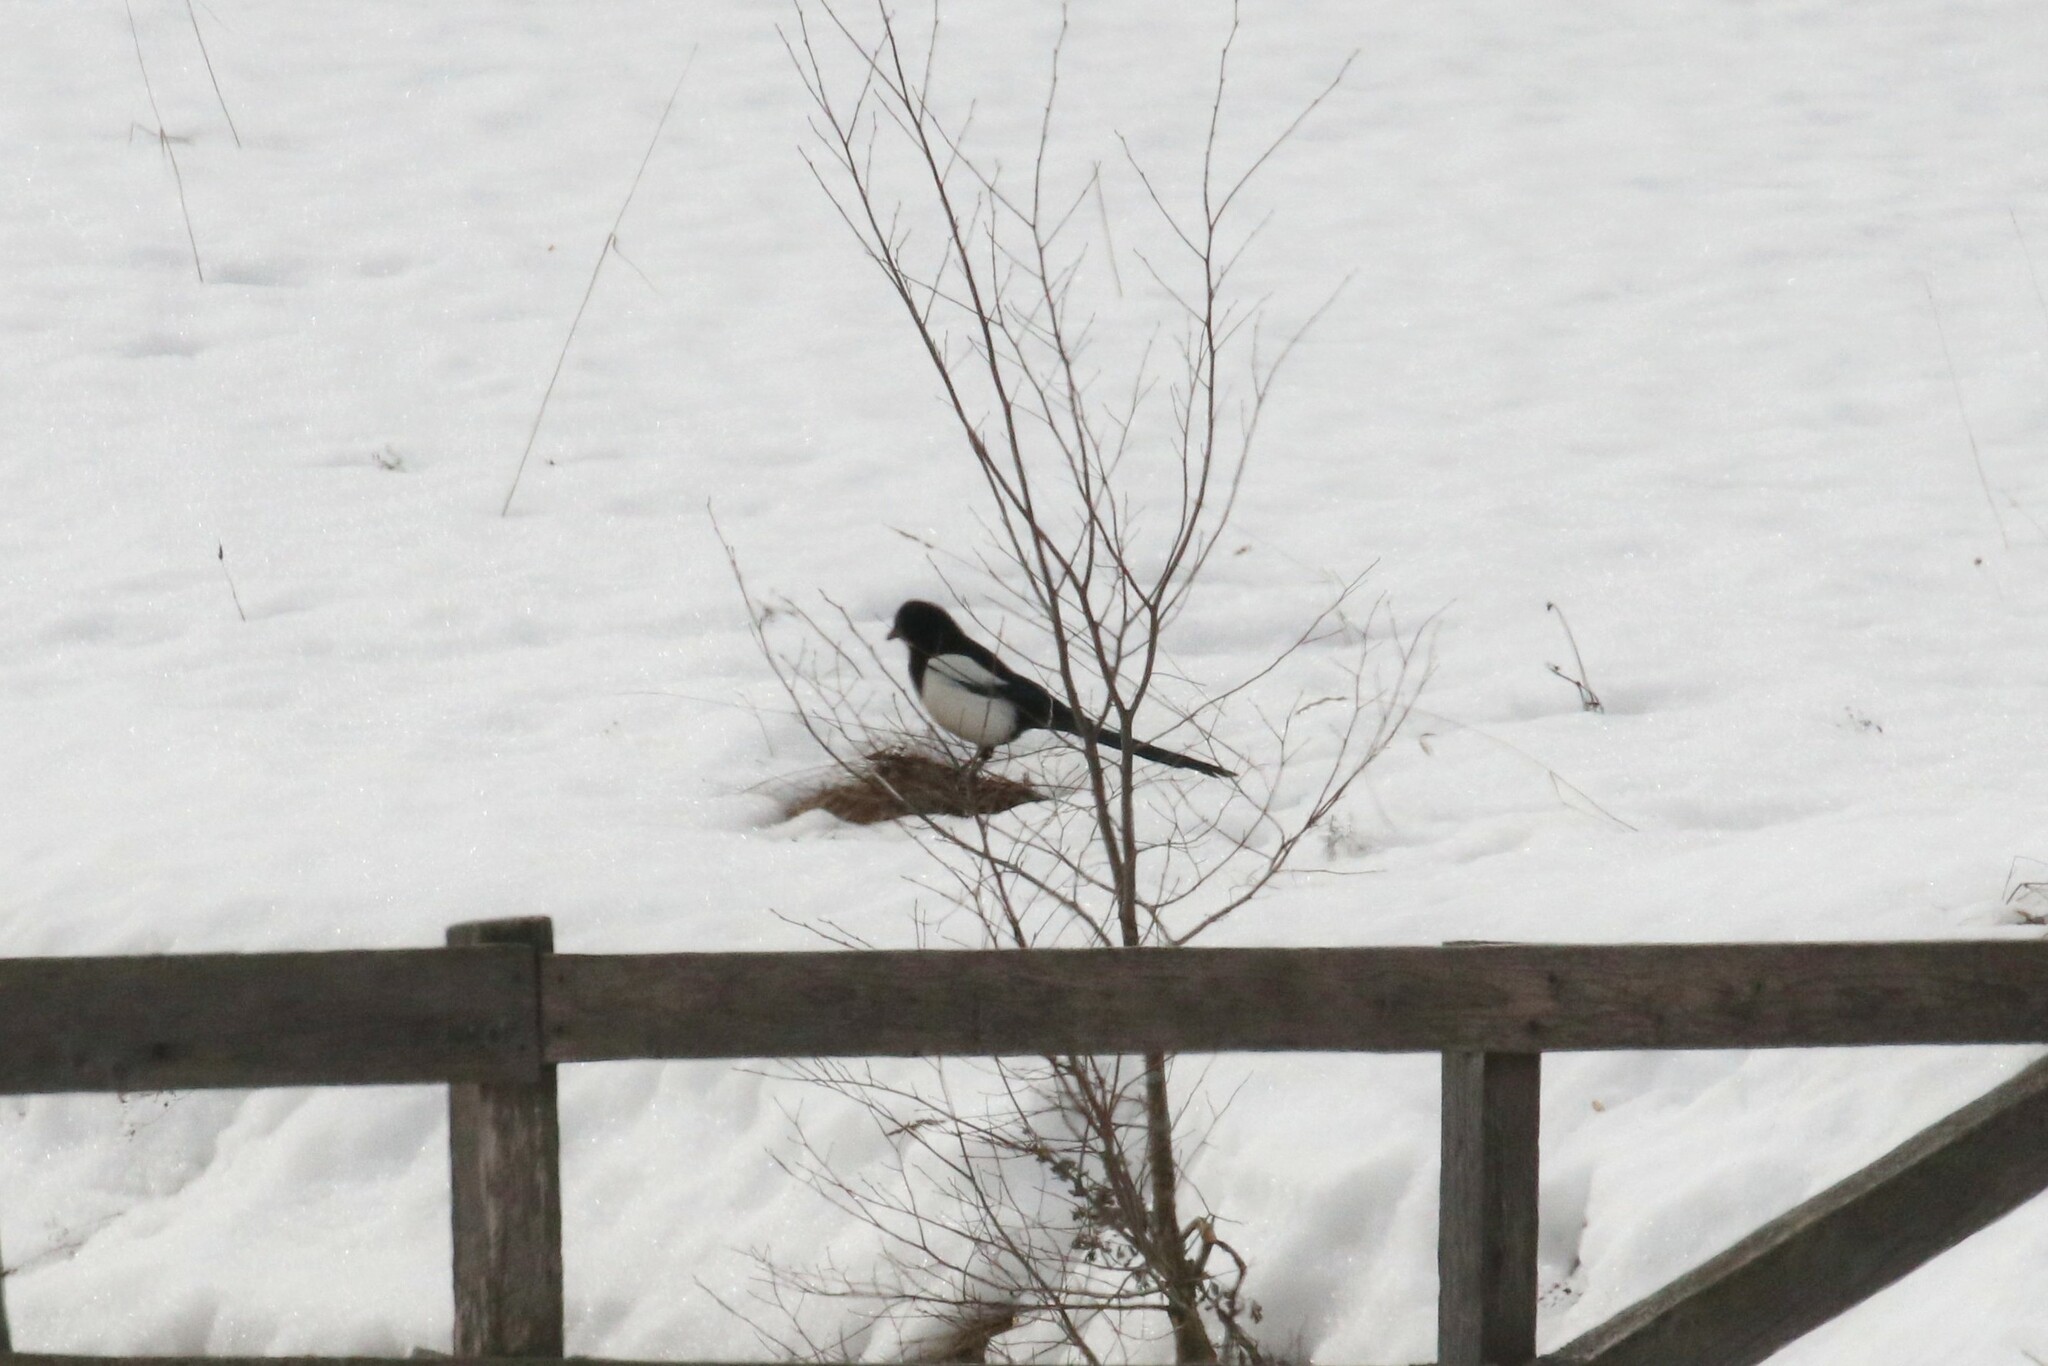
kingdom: Animalia
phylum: Chordata
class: Aves
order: Passeriformes
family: Corvidae
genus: Pica
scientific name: Pica pica
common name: Eurasian magpie
